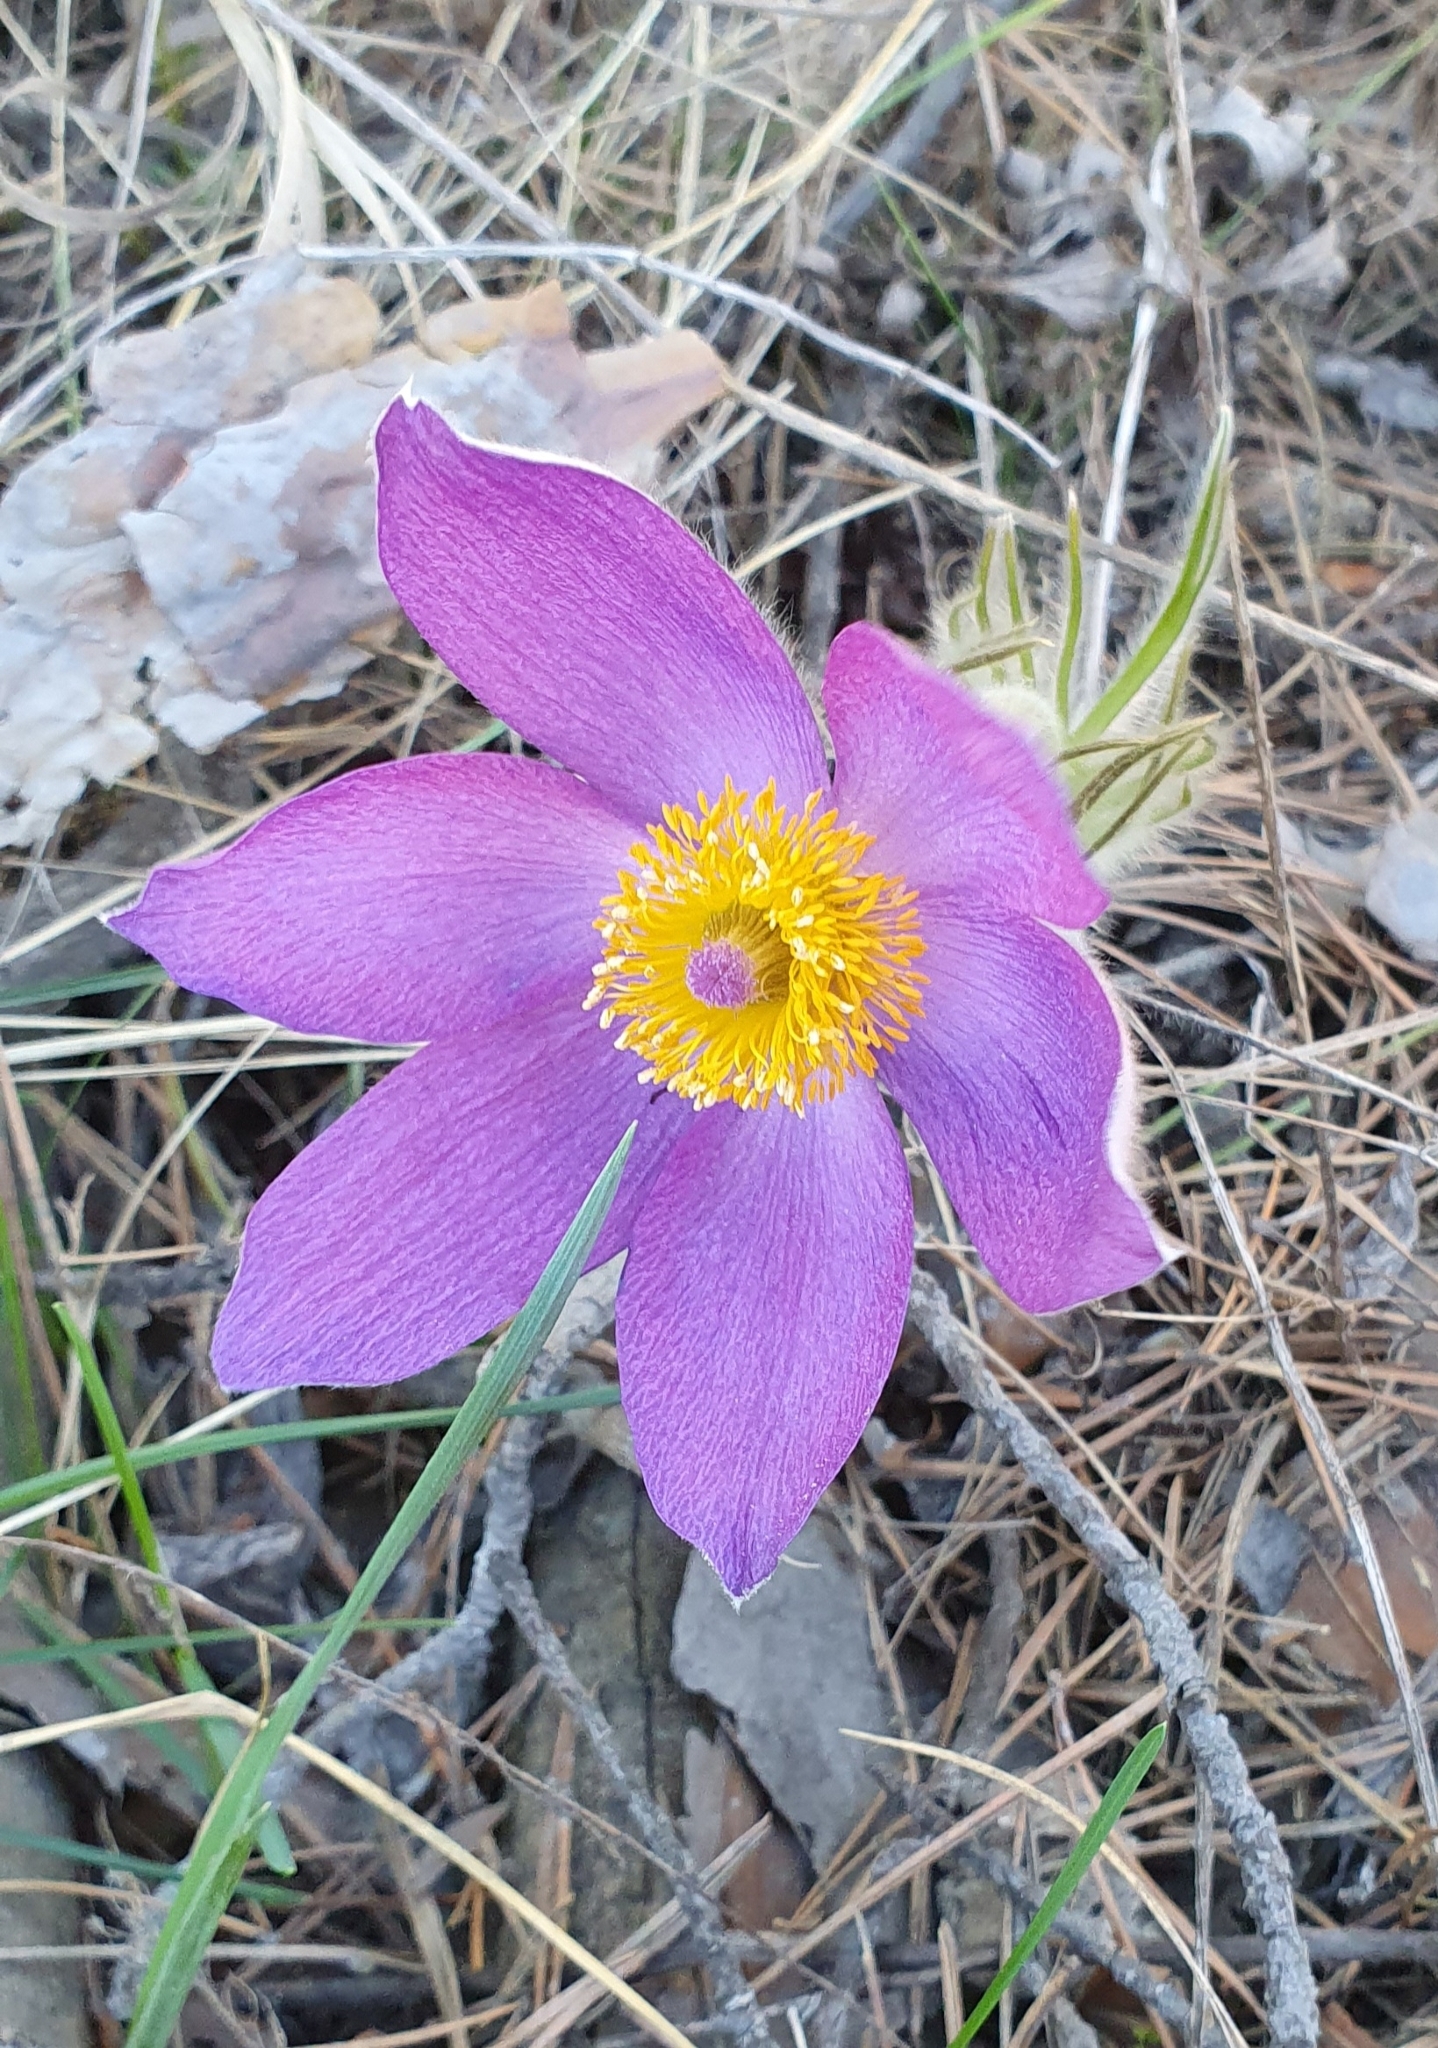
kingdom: Plantae
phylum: Tracheophyta
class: Magnoliopsida
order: Ranunculales
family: Ranunculaceae
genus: Pulsatilla
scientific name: Pulsatilla patens
